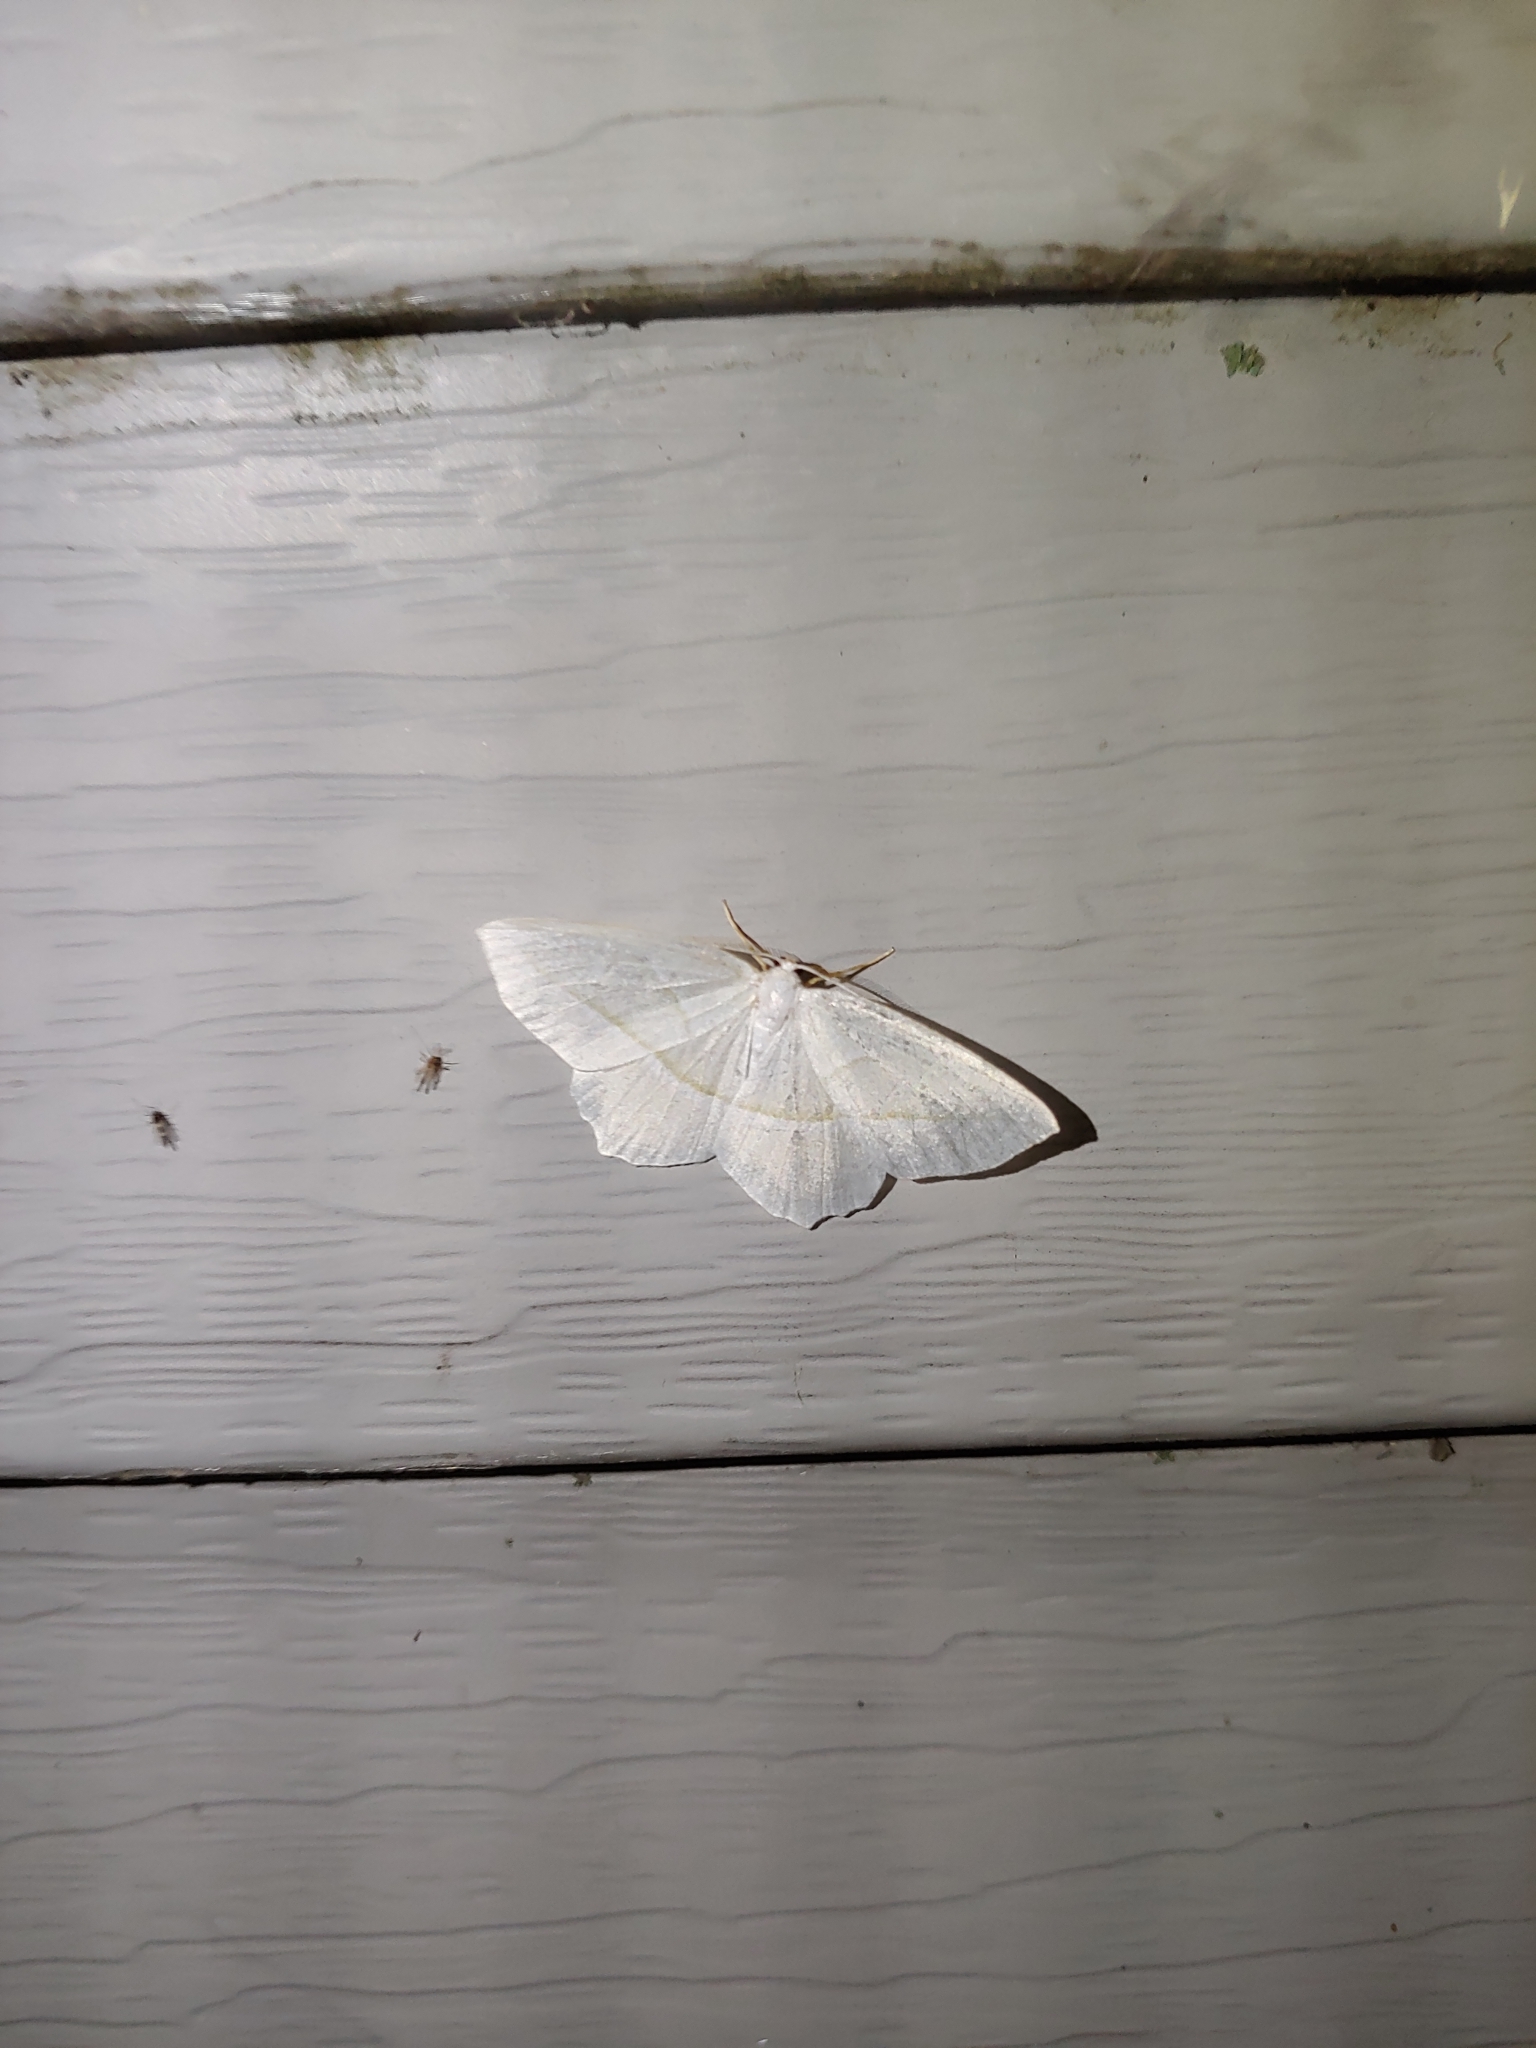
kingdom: Animalia
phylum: Arthropoda
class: Insecta
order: Lepidoptera
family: Geometridae
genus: Campaea
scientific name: Campaea perlata
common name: Fringed looper
